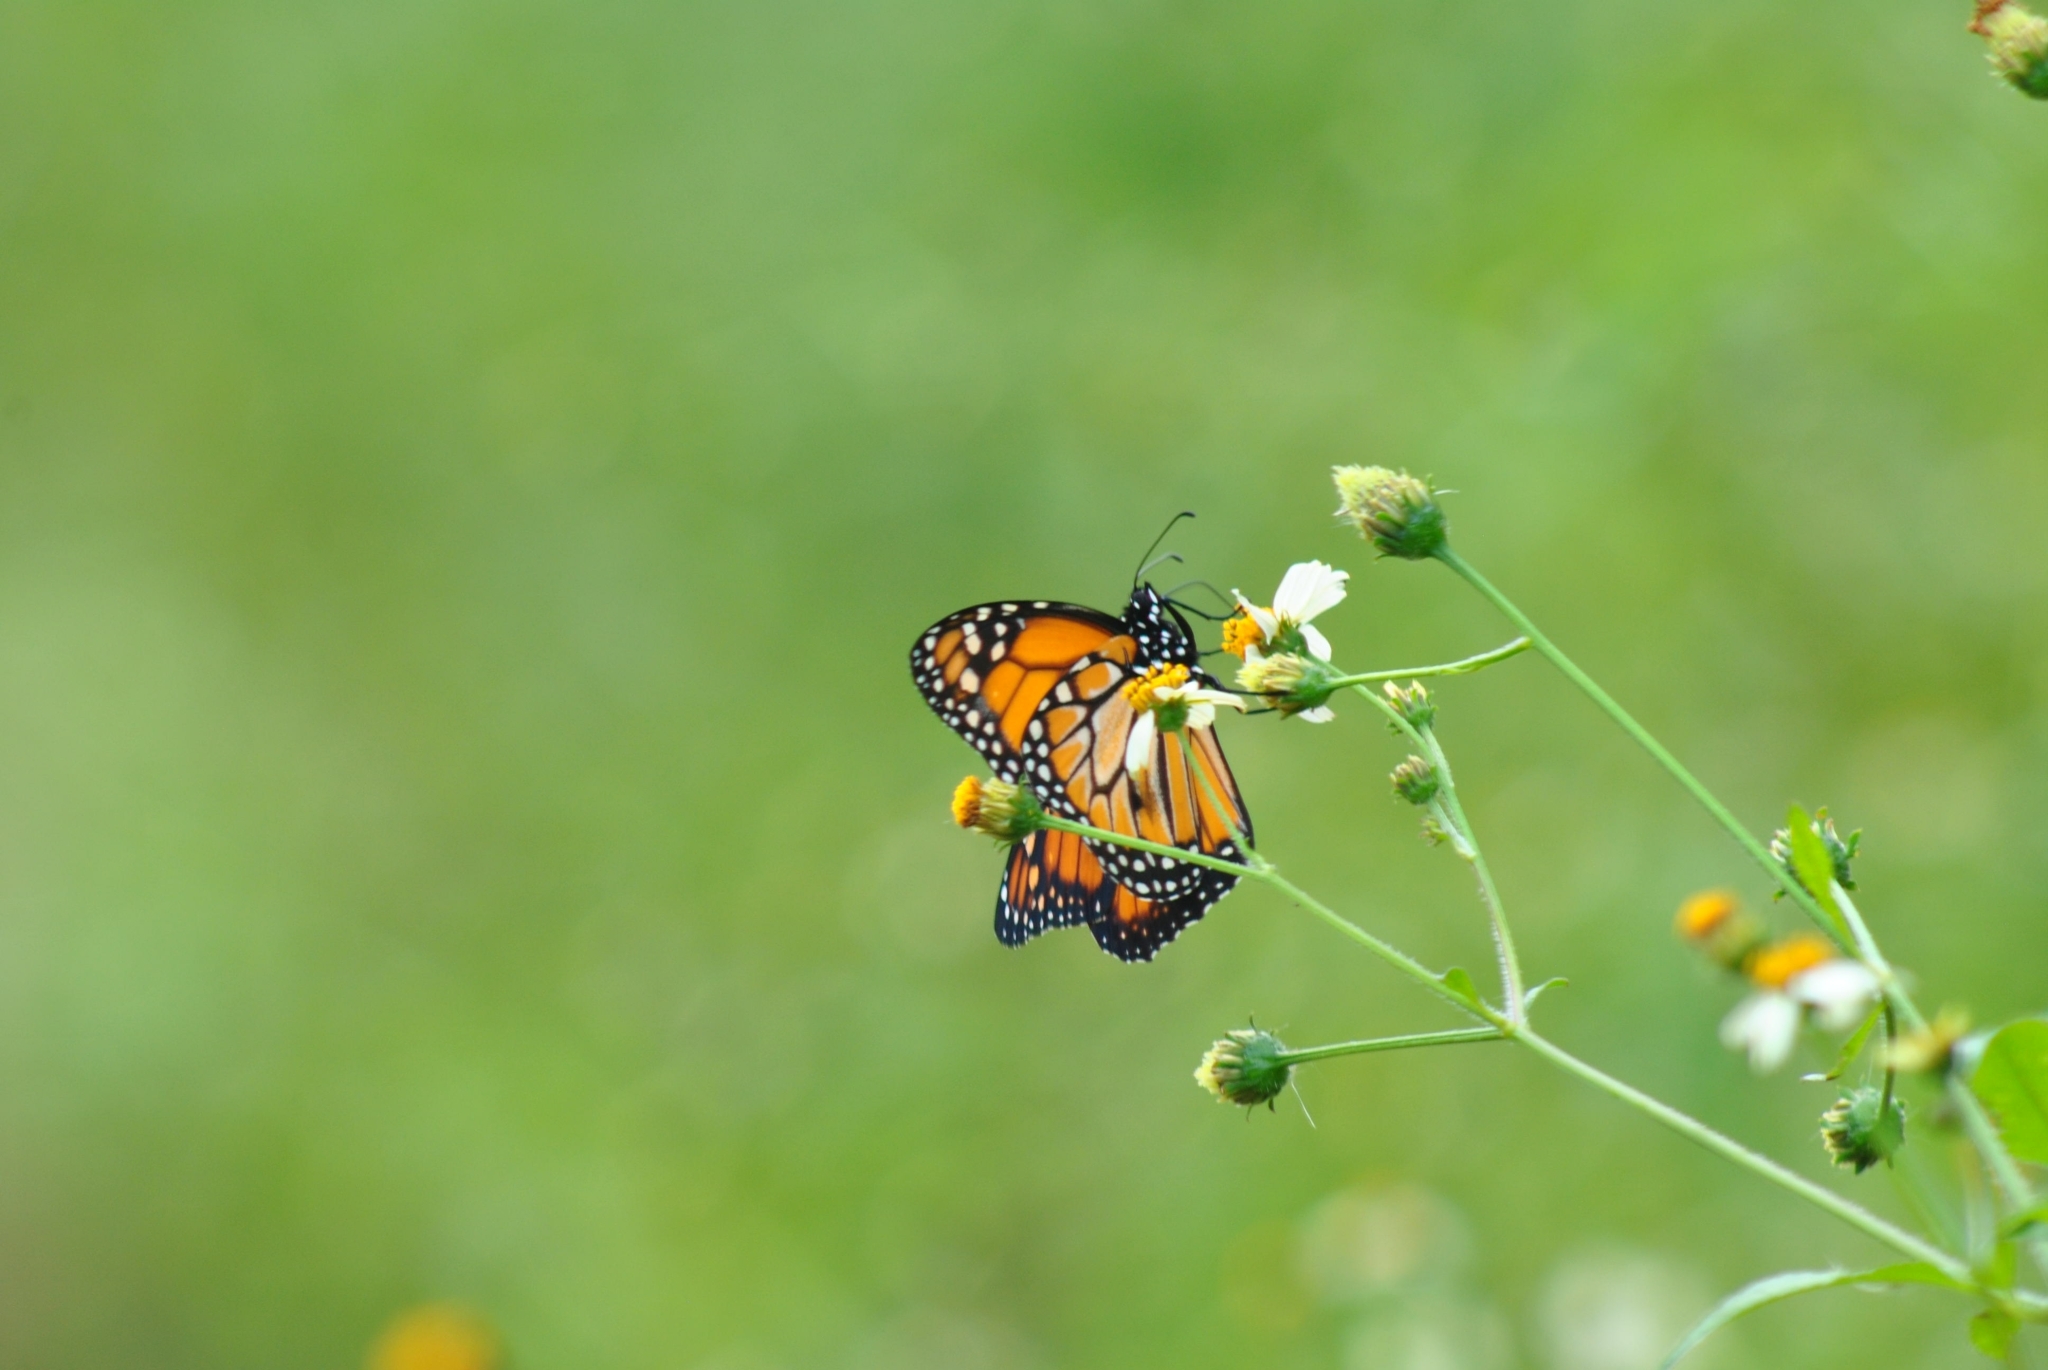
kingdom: Animalia
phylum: Arthropoda
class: Insecta
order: Lepidoptera
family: Nymphalidae
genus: Danaus
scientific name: Danaus erippus
